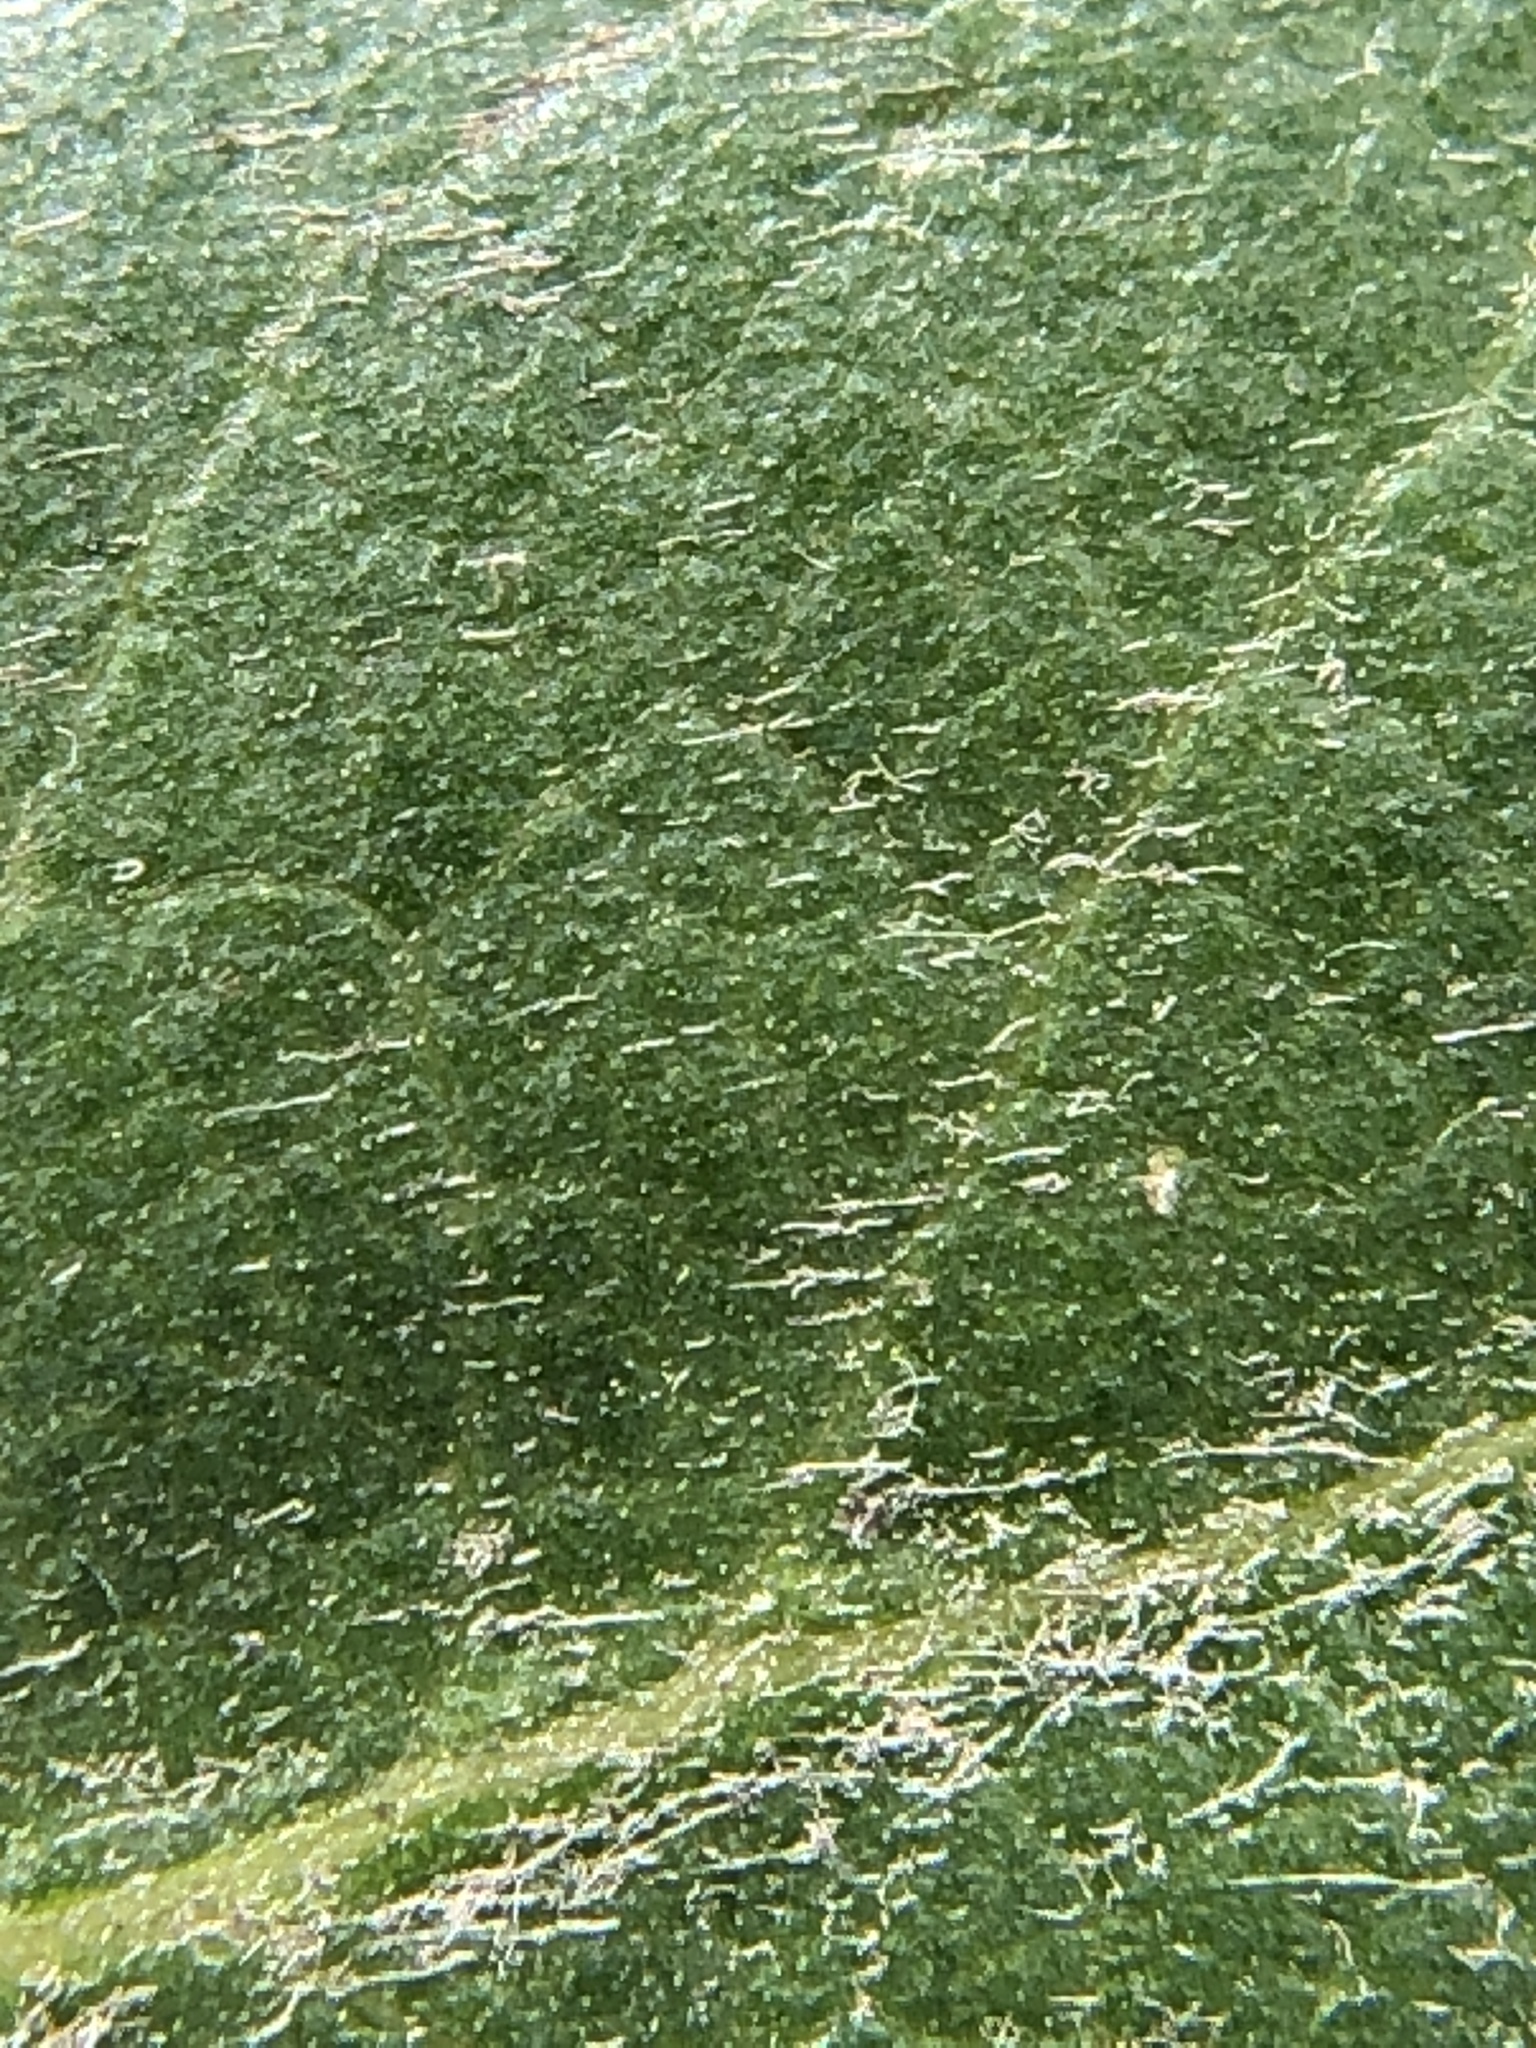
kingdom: Plantae
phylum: Tracheophyta
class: Magnoliopsida
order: Ericales
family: Ericaceae
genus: Arctostaphylos
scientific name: Arctostaphylos crustacea
